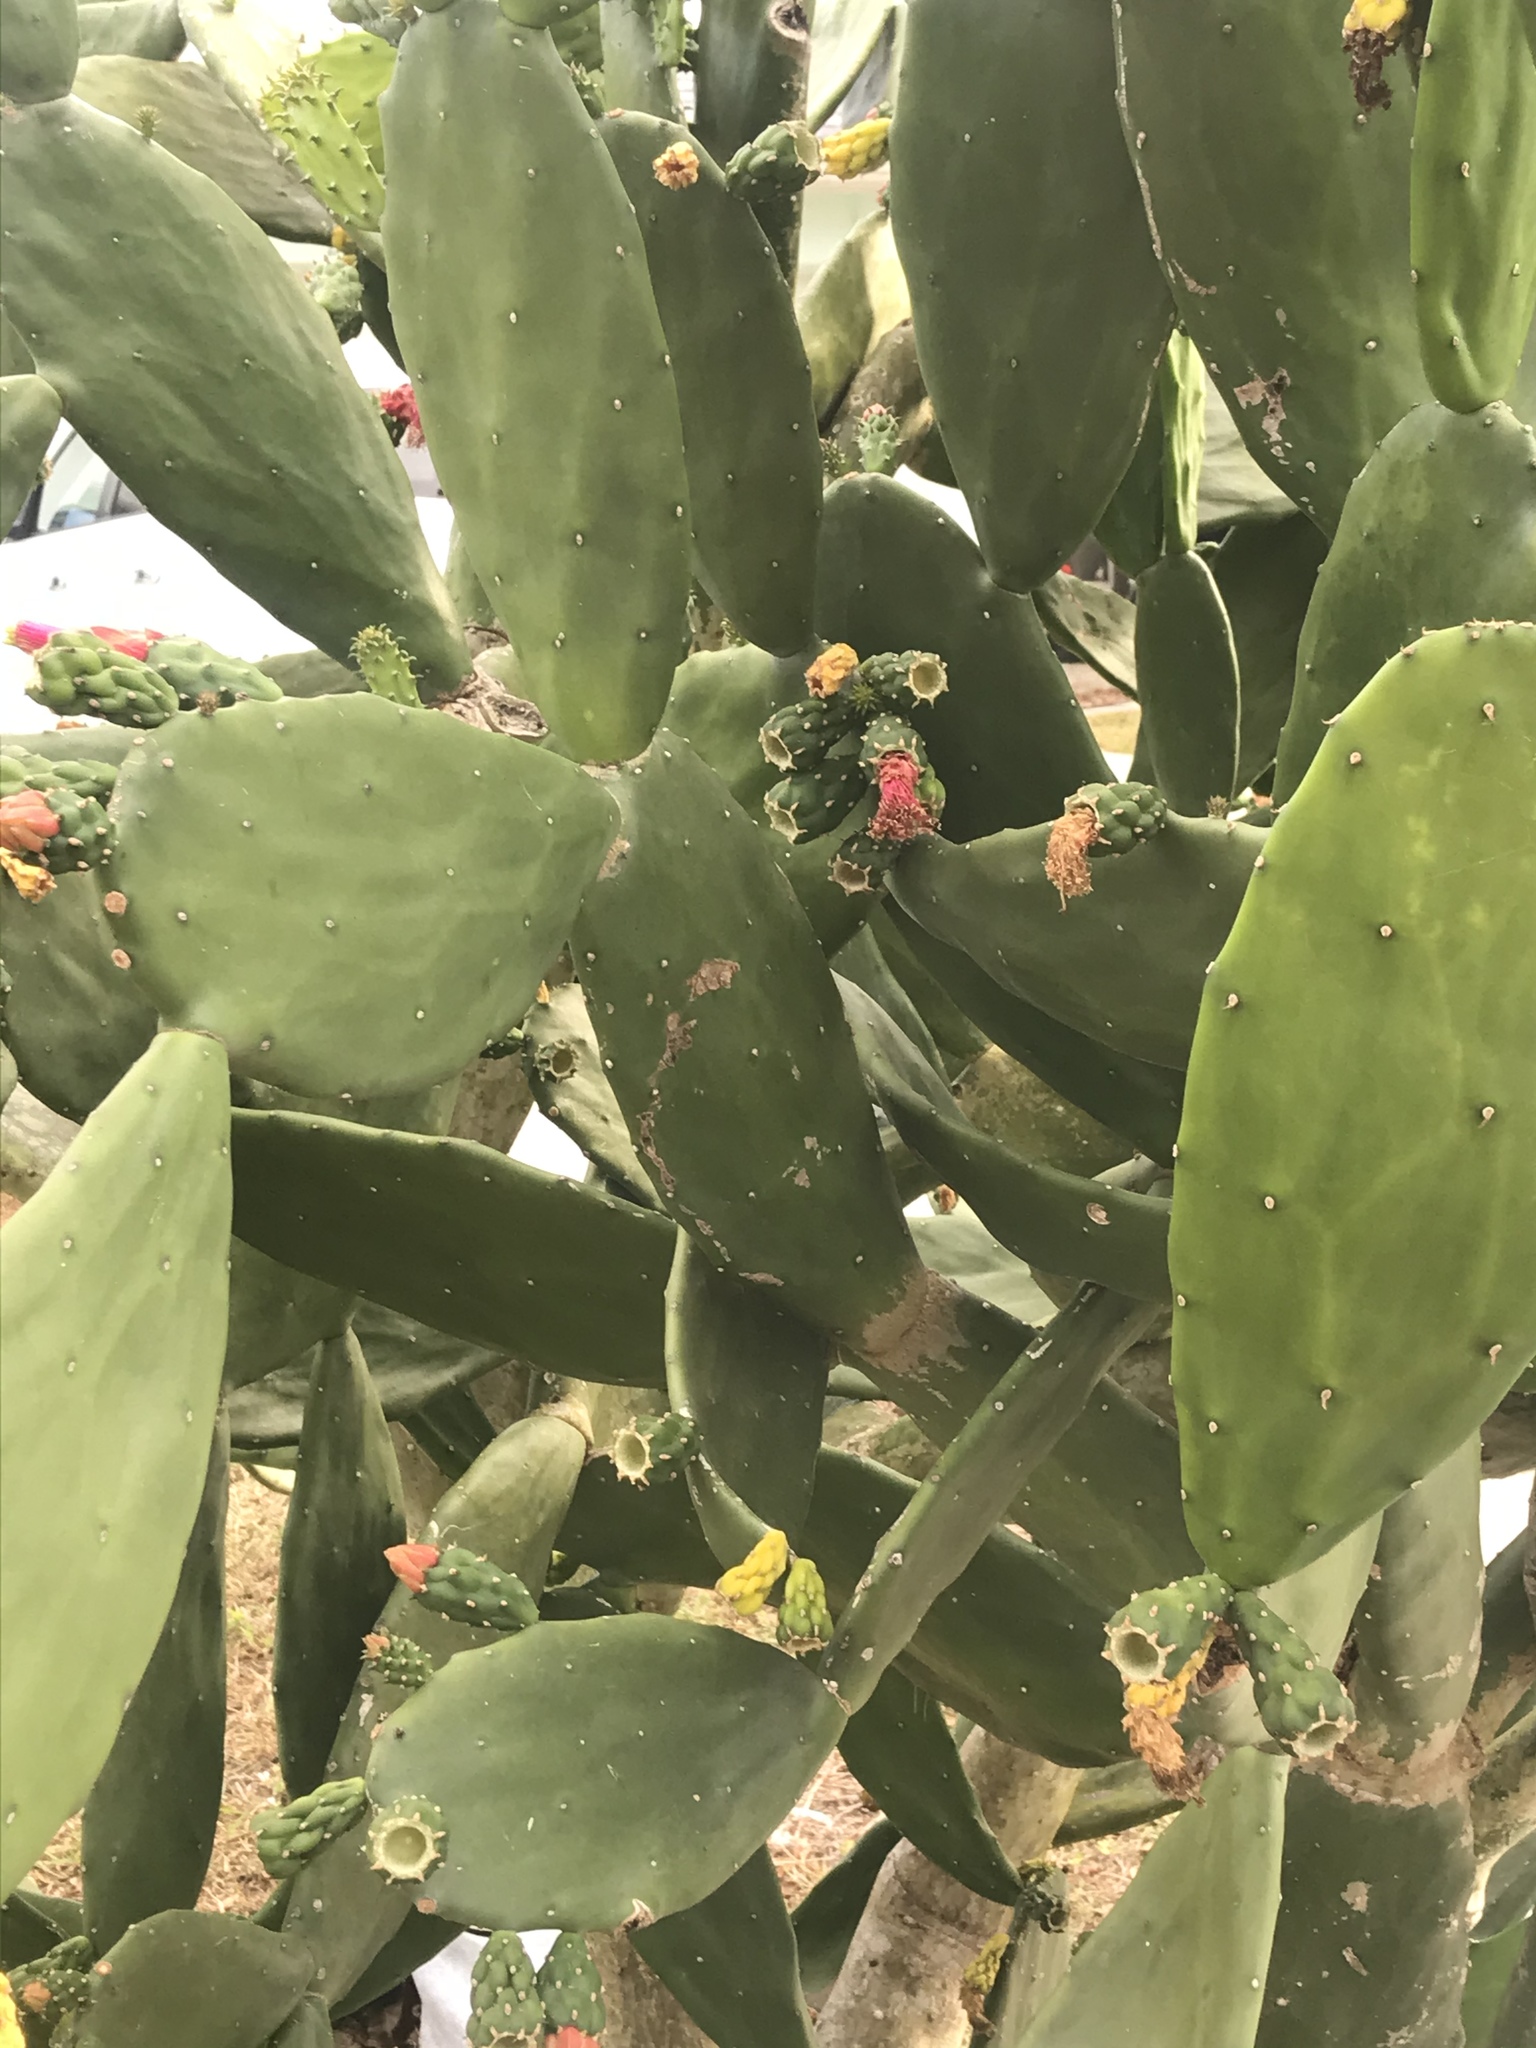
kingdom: Plantae
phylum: Tracheophyta
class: Magnoliopsida
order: Caryophyllales
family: Cactaceae
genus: Opuntia
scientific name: Opuntia cochenillifera
